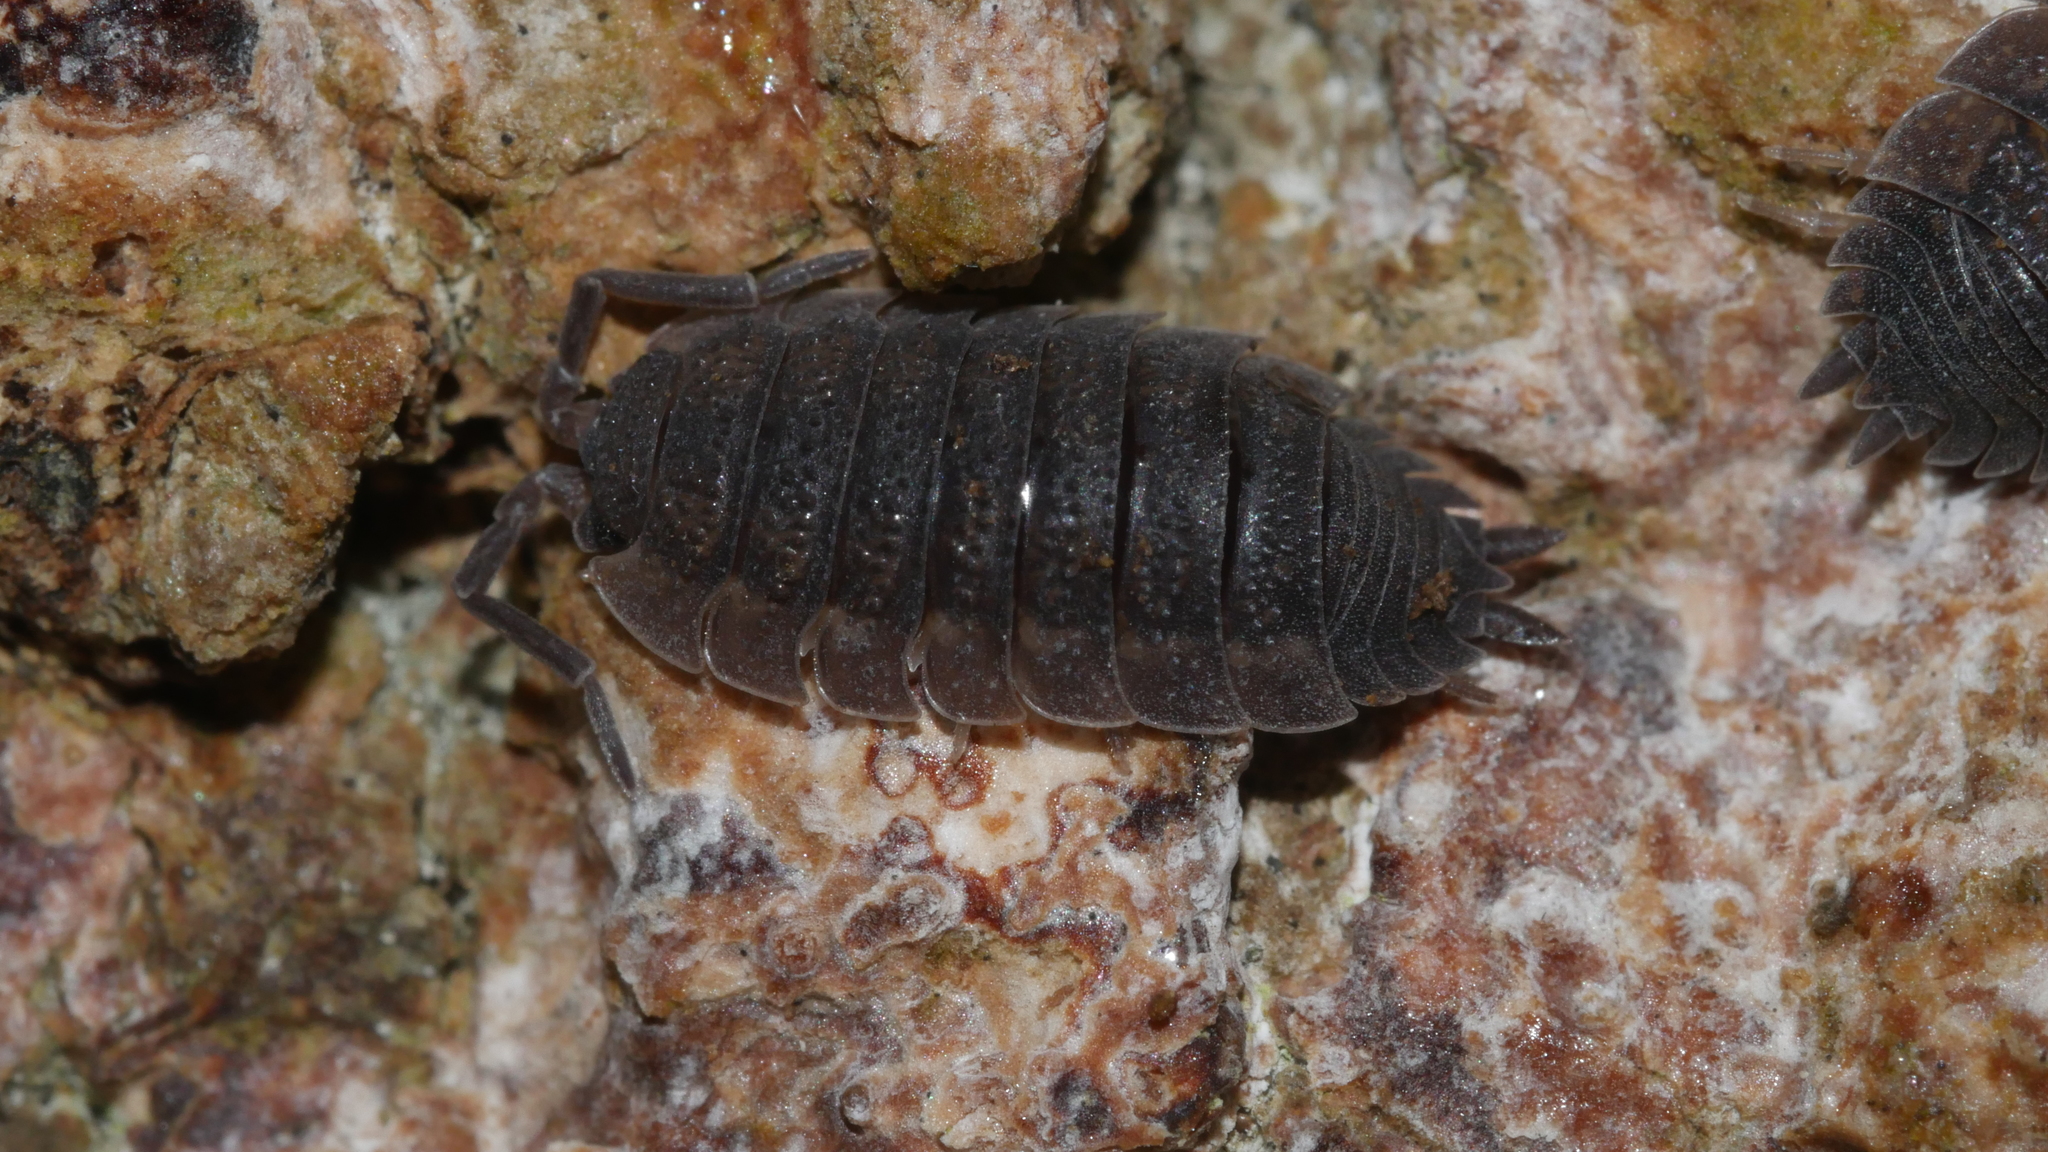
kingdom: Animalia
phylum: Arthropoda
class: Malacostraca
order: Isopoda
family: Porcellionidae
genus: Porcellio
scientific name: Porcellio scaber
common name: Common rough woodlouse
